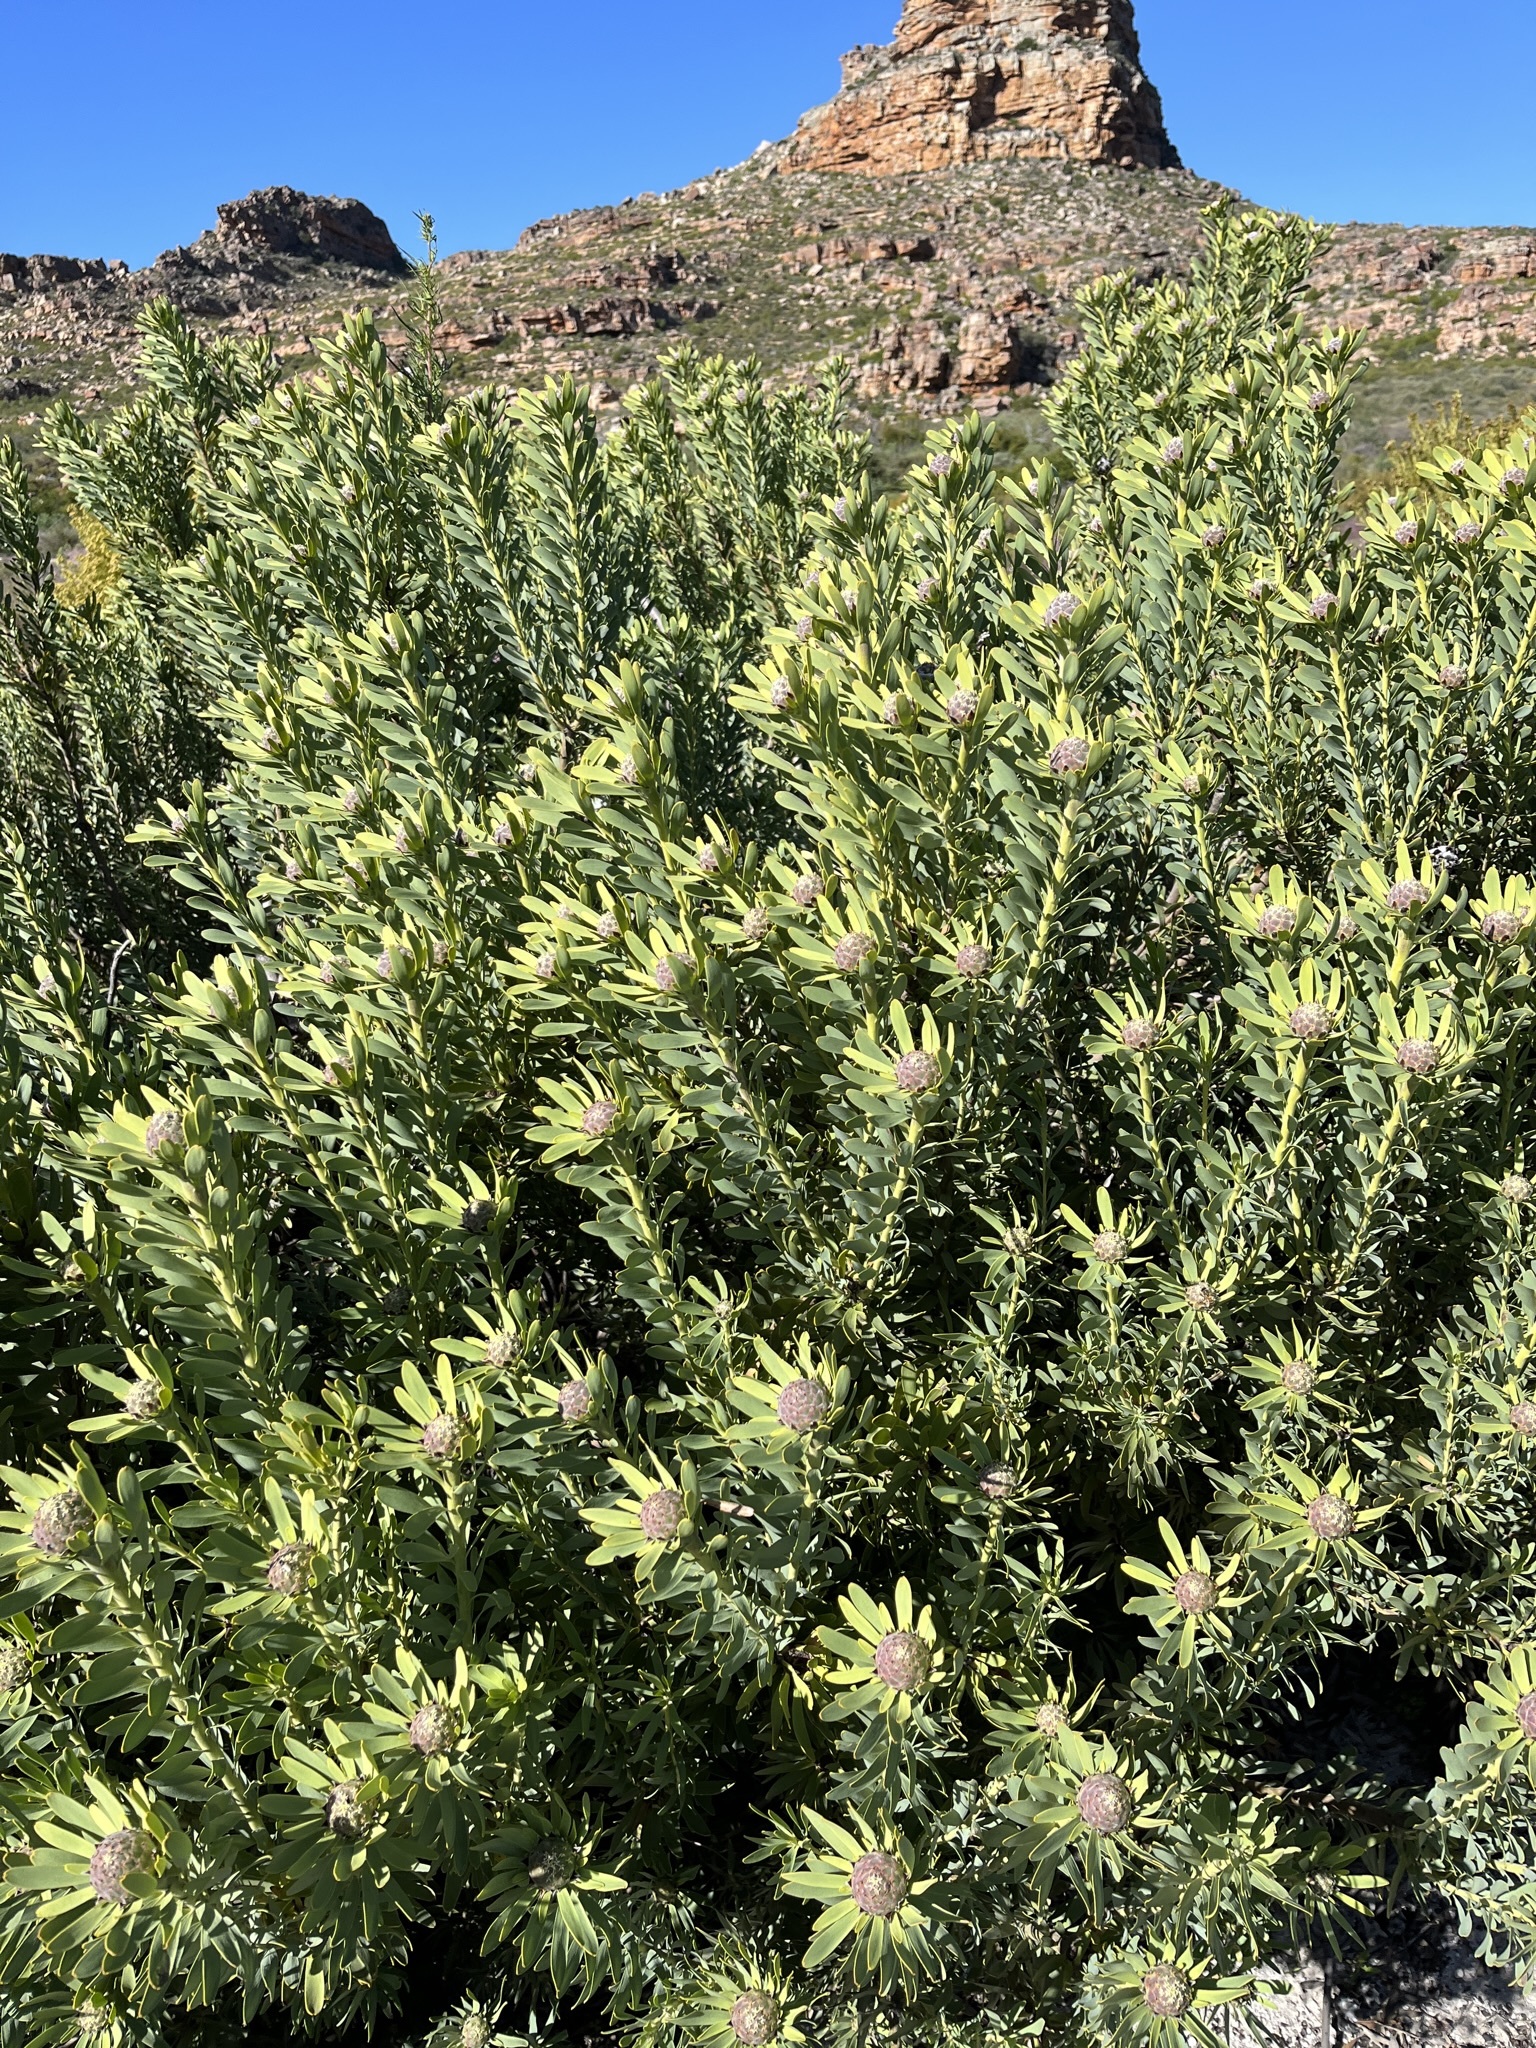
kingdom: Plantae
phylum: Tracheophyta
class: Magnoliopsida
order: Proteales
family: Proteaceae
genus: Leucadendron
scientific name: Leucadendron pubescens
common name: Grey conebush
